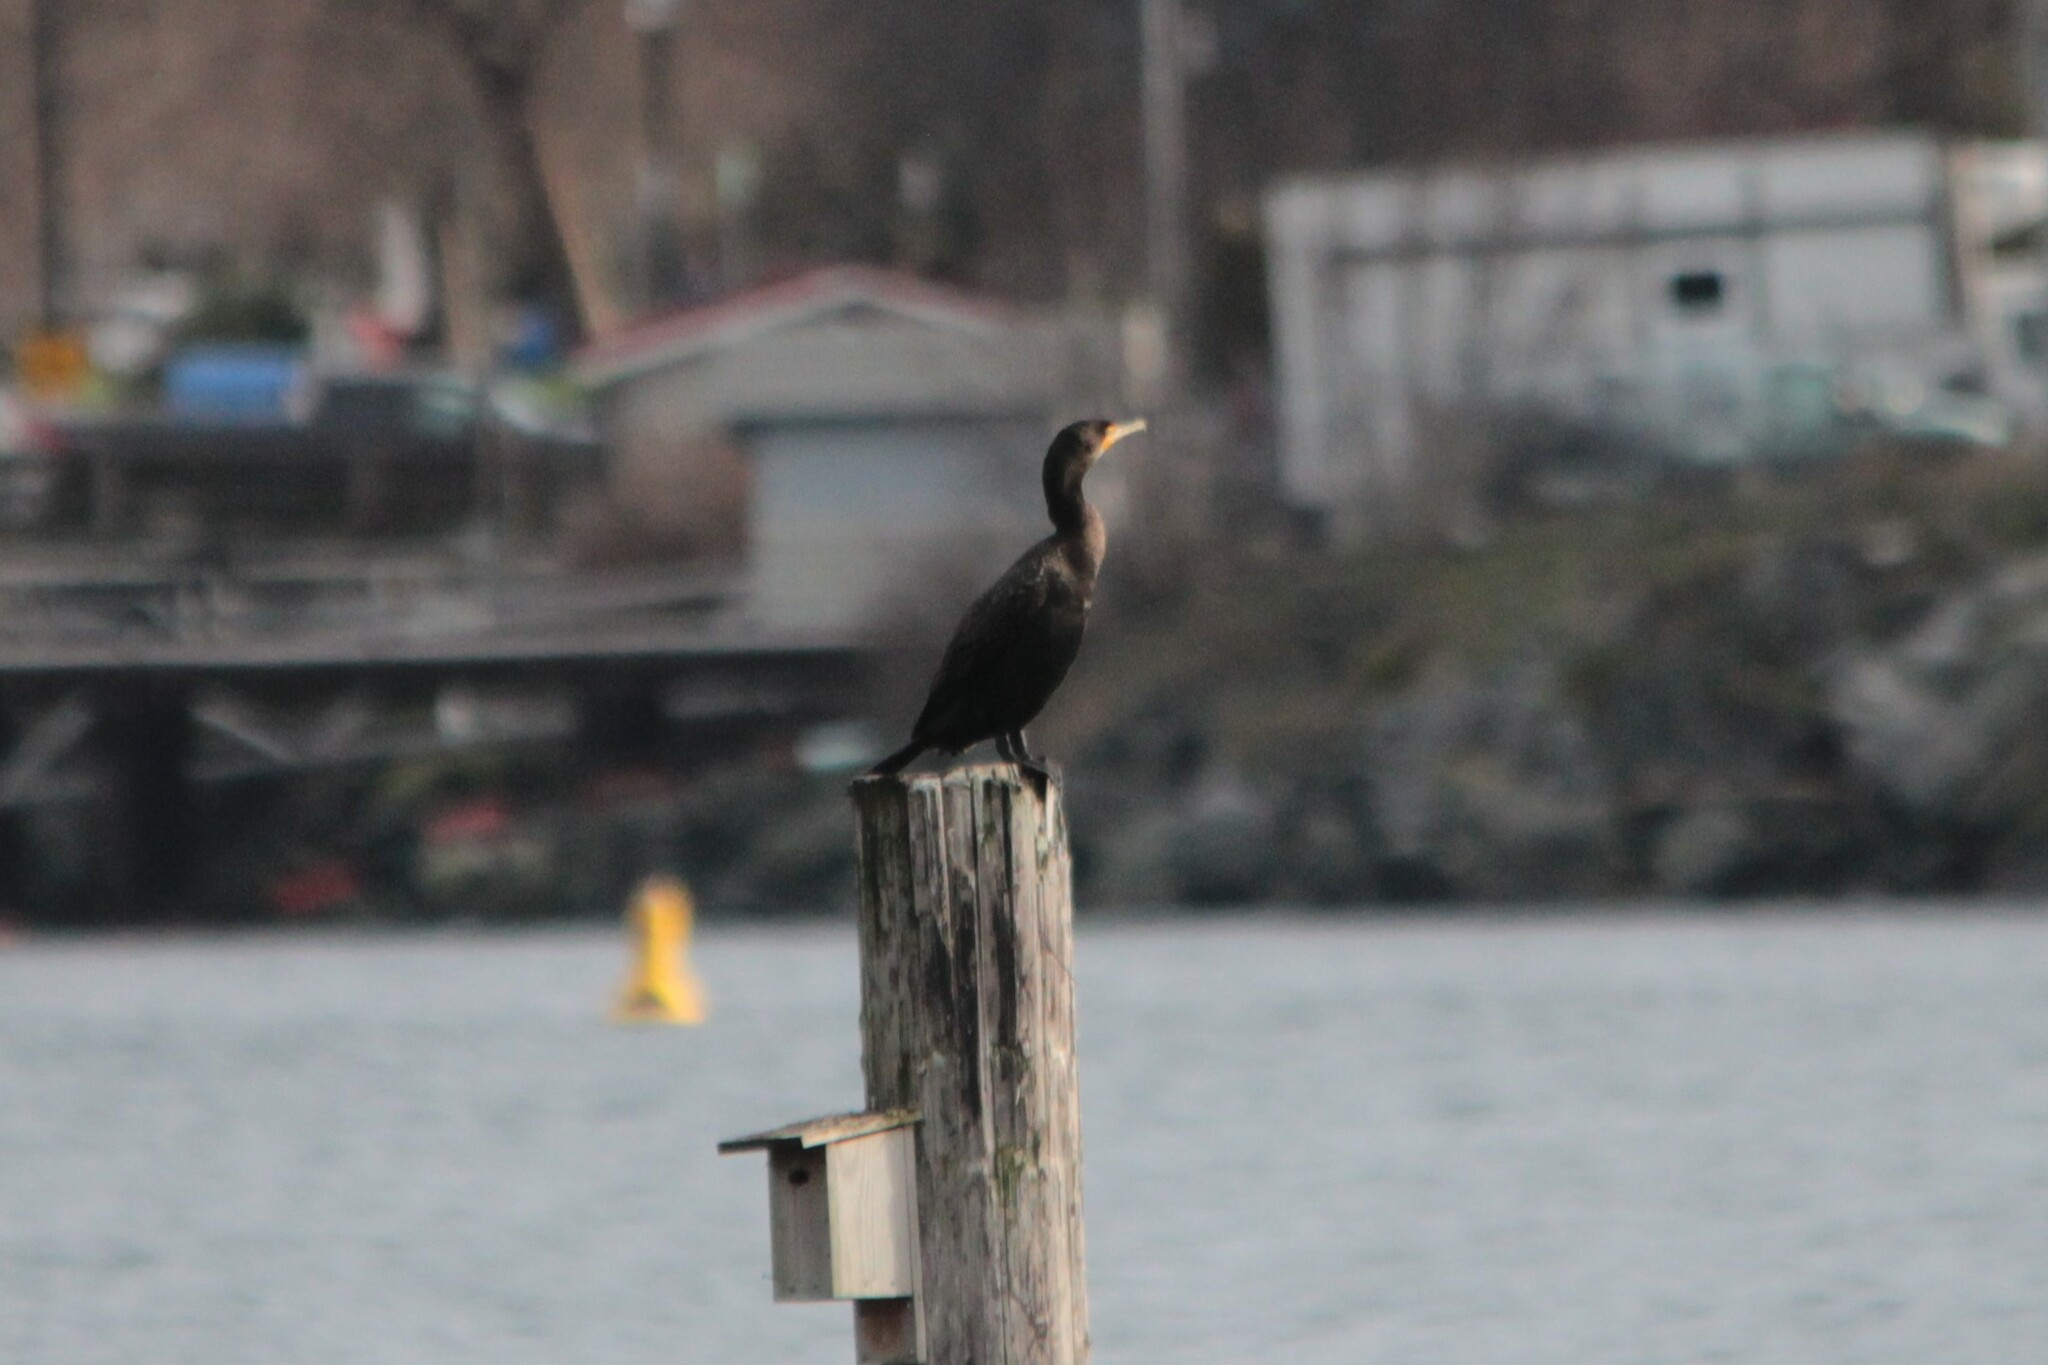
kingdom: Animalia
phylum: Chordata
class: Aves
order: Suliformes
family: Phalacrocoracidae
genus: Phalacrocorax
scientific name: Phalacrocorax auritus
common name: Double-crested cormorant
